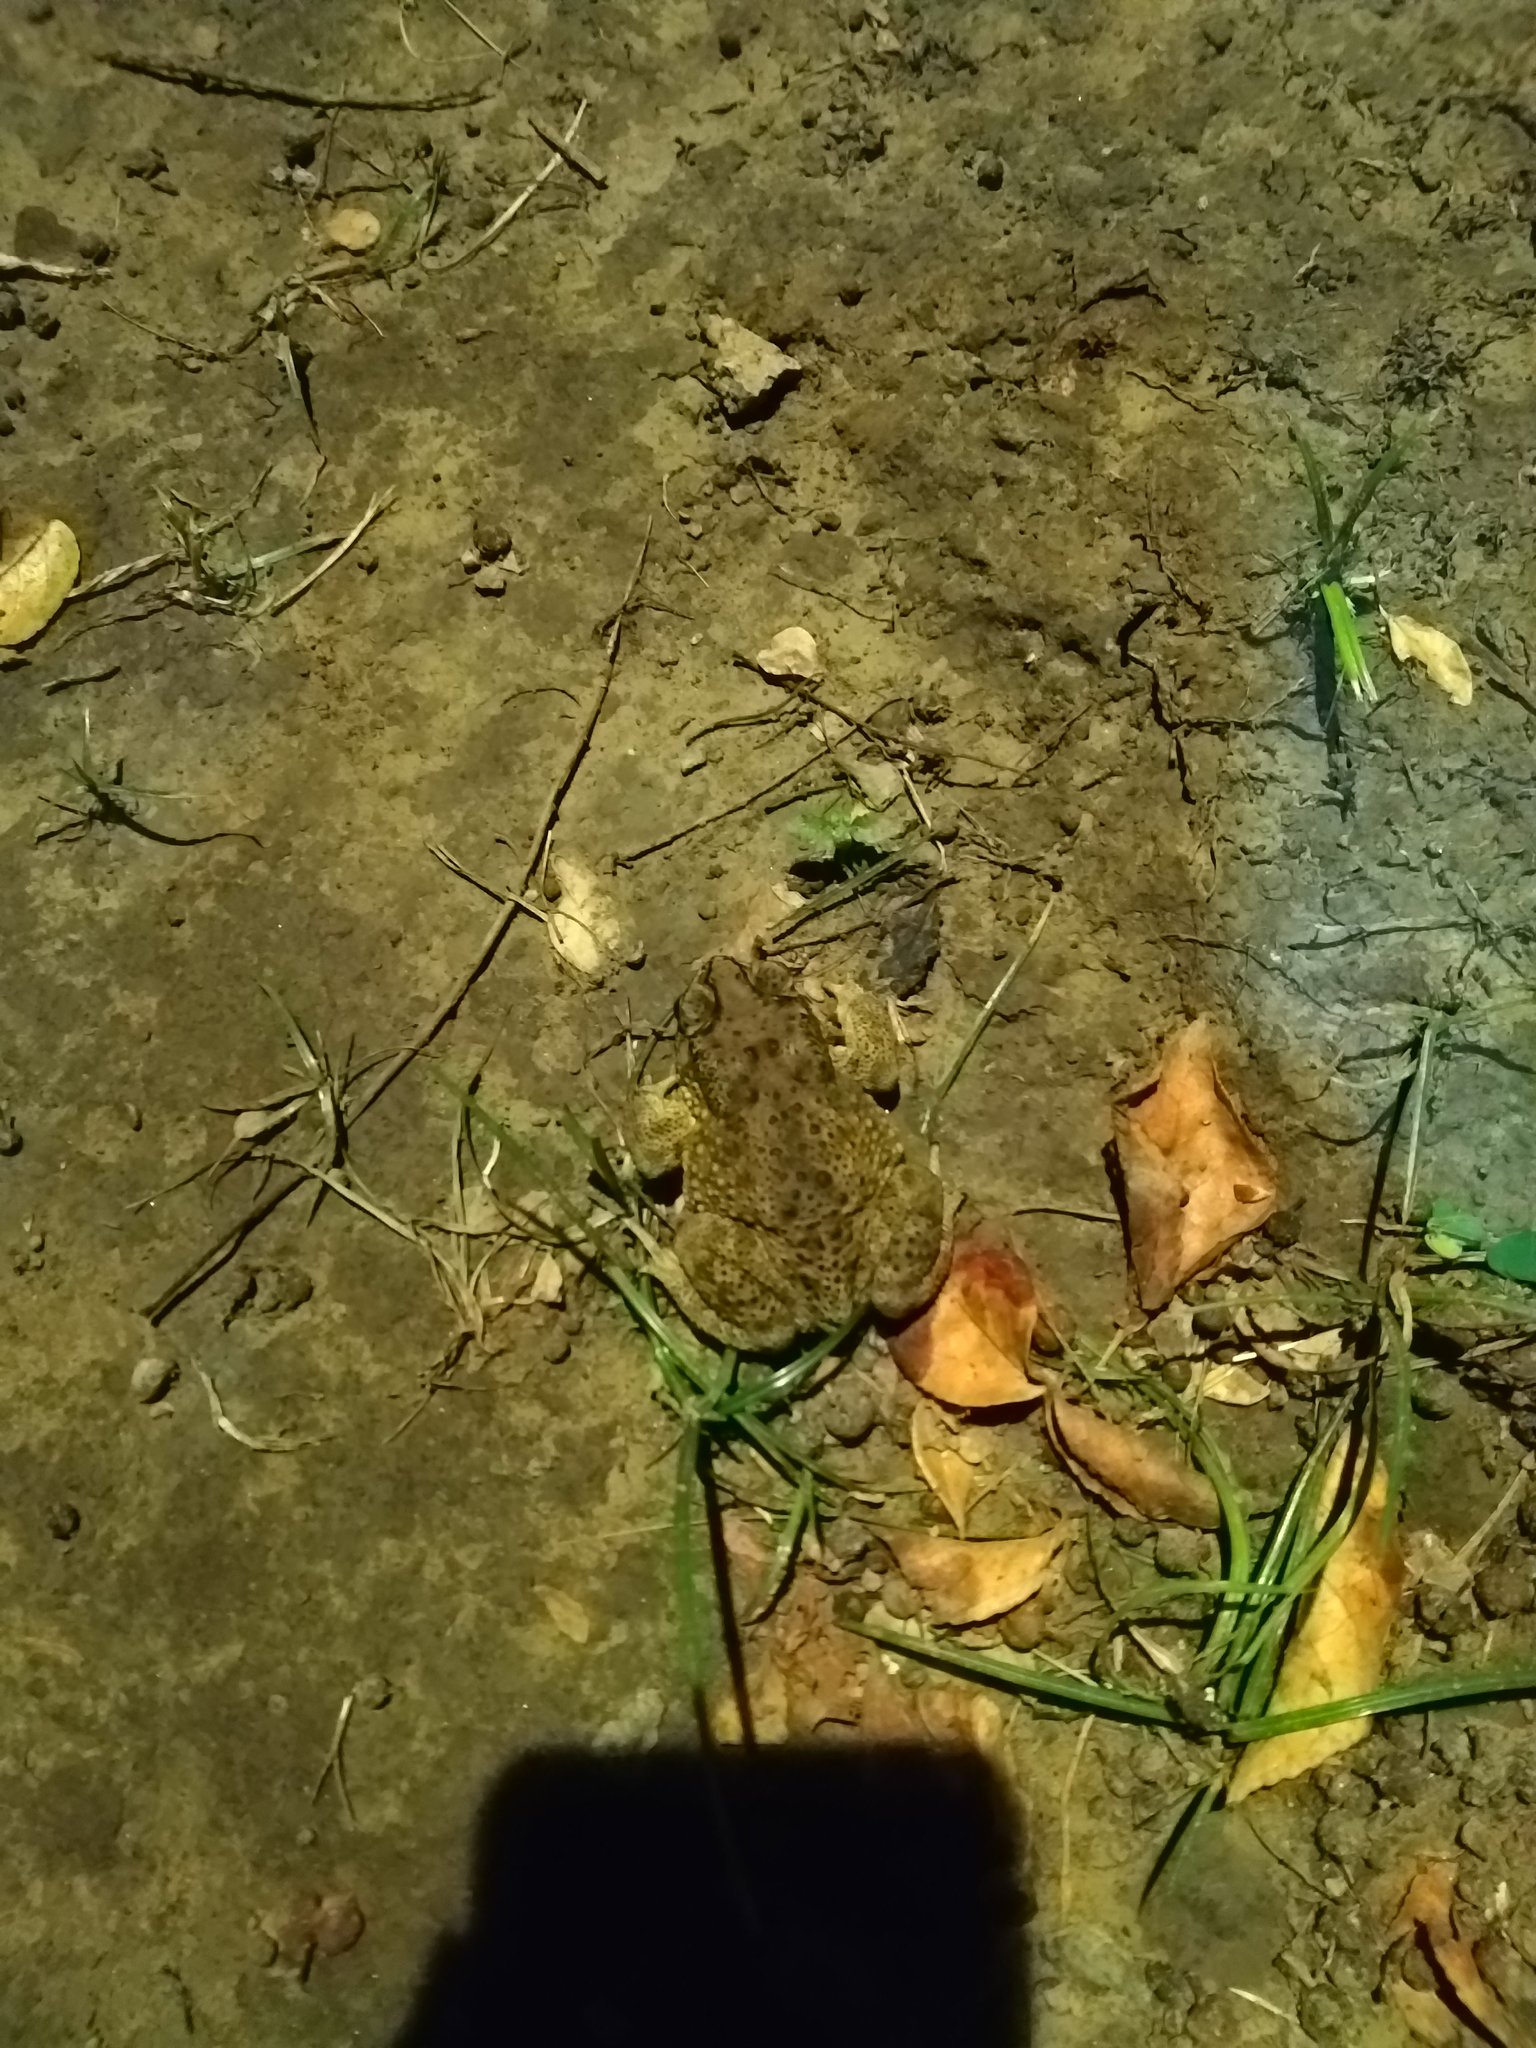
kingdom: Animalia
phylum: Chordata
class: Amphibia
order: Anura
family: Bufonidae
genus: Duttaphrynus
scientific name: Duttaphrynus melanostictus
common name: Common sunda toad
